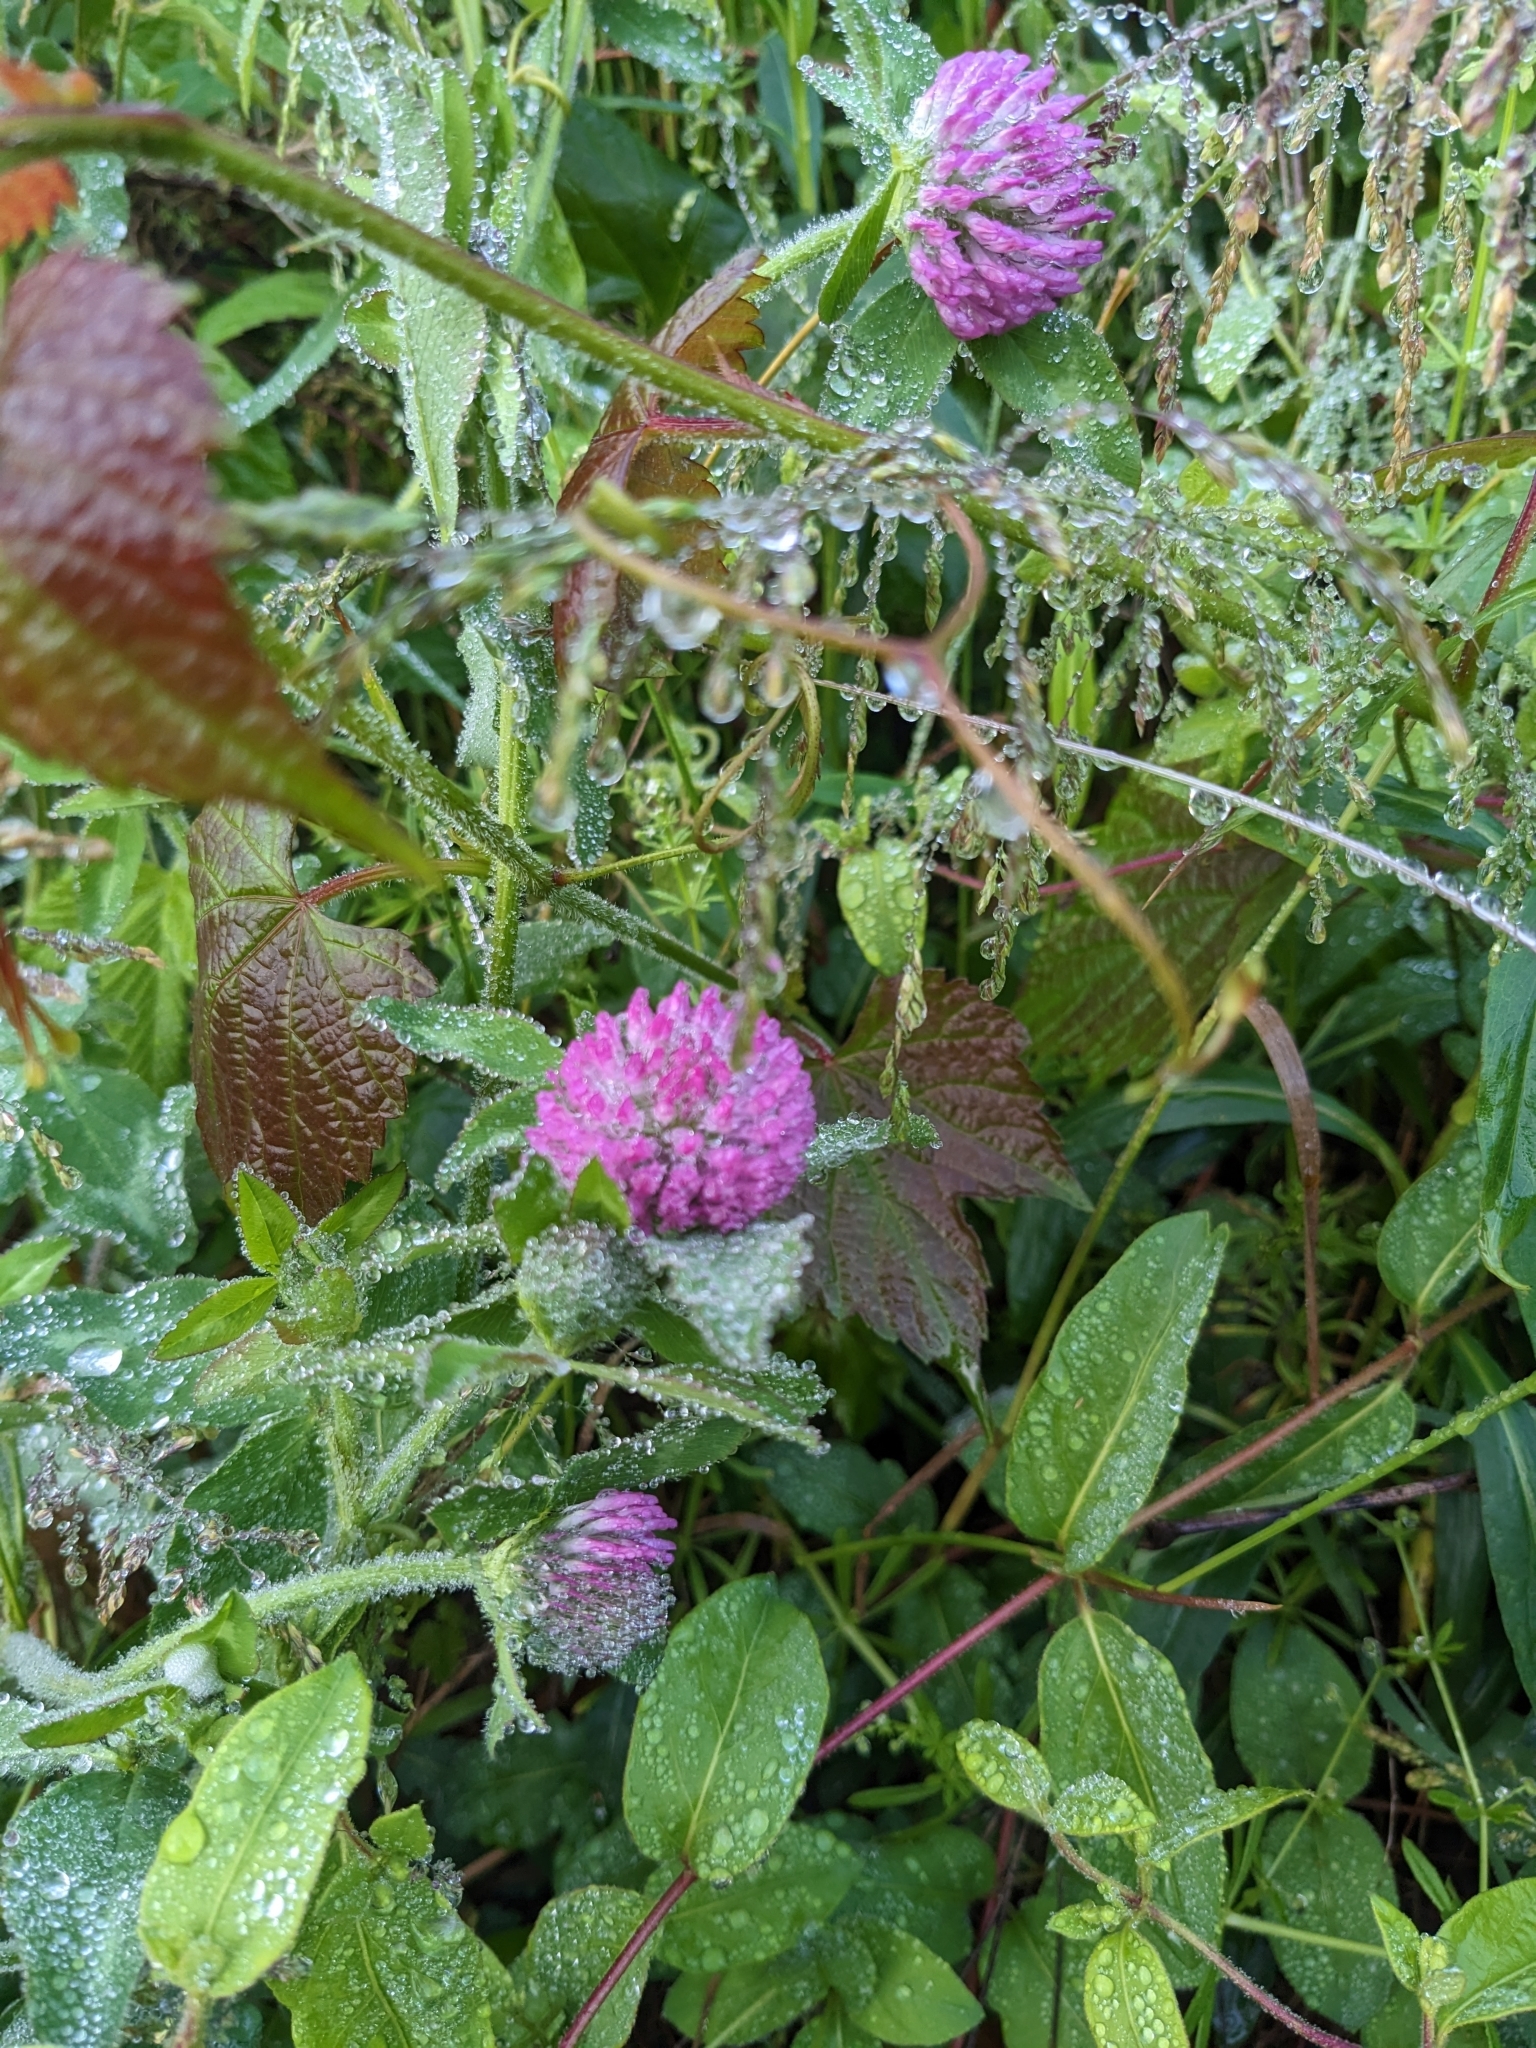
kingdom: Plantae
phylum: Tracheophyta
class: Magnoliopsida
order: Fabales
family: Fabaceae
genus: Trifolium
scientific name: Trifolium pratense
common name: Red clover
